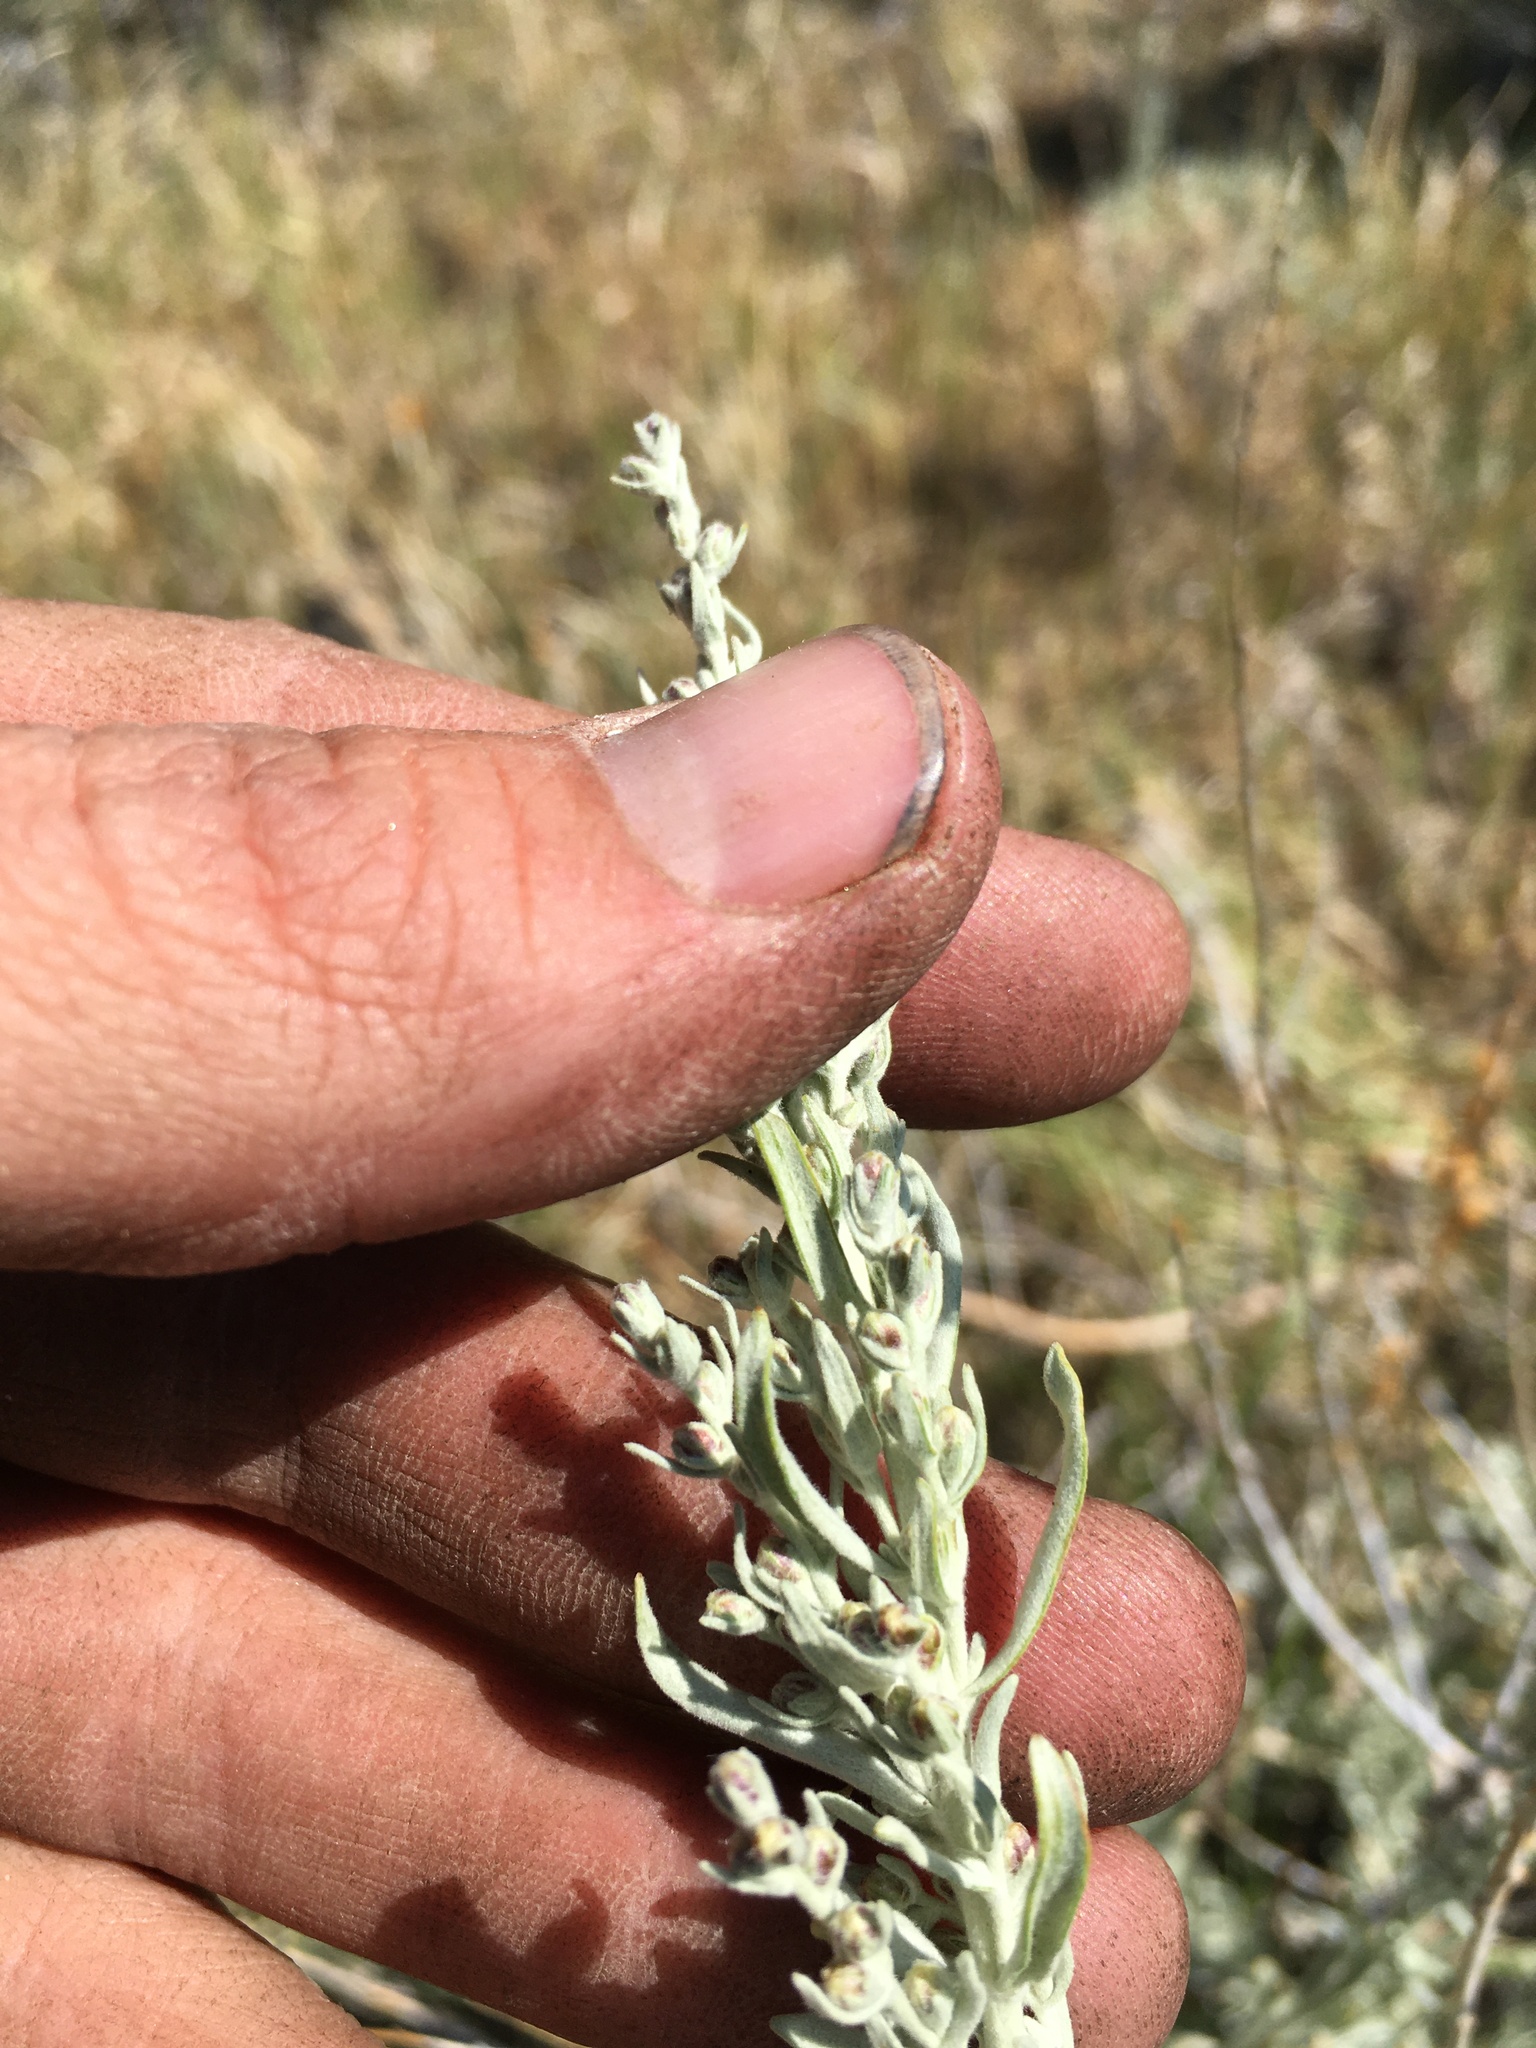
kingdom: Plantae
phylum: Tracheophyta
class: Magnoliopsida
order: Asterales
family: Asteraceae
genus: Artemisia
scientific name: Artemisia cana
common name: Silver sagebrush
